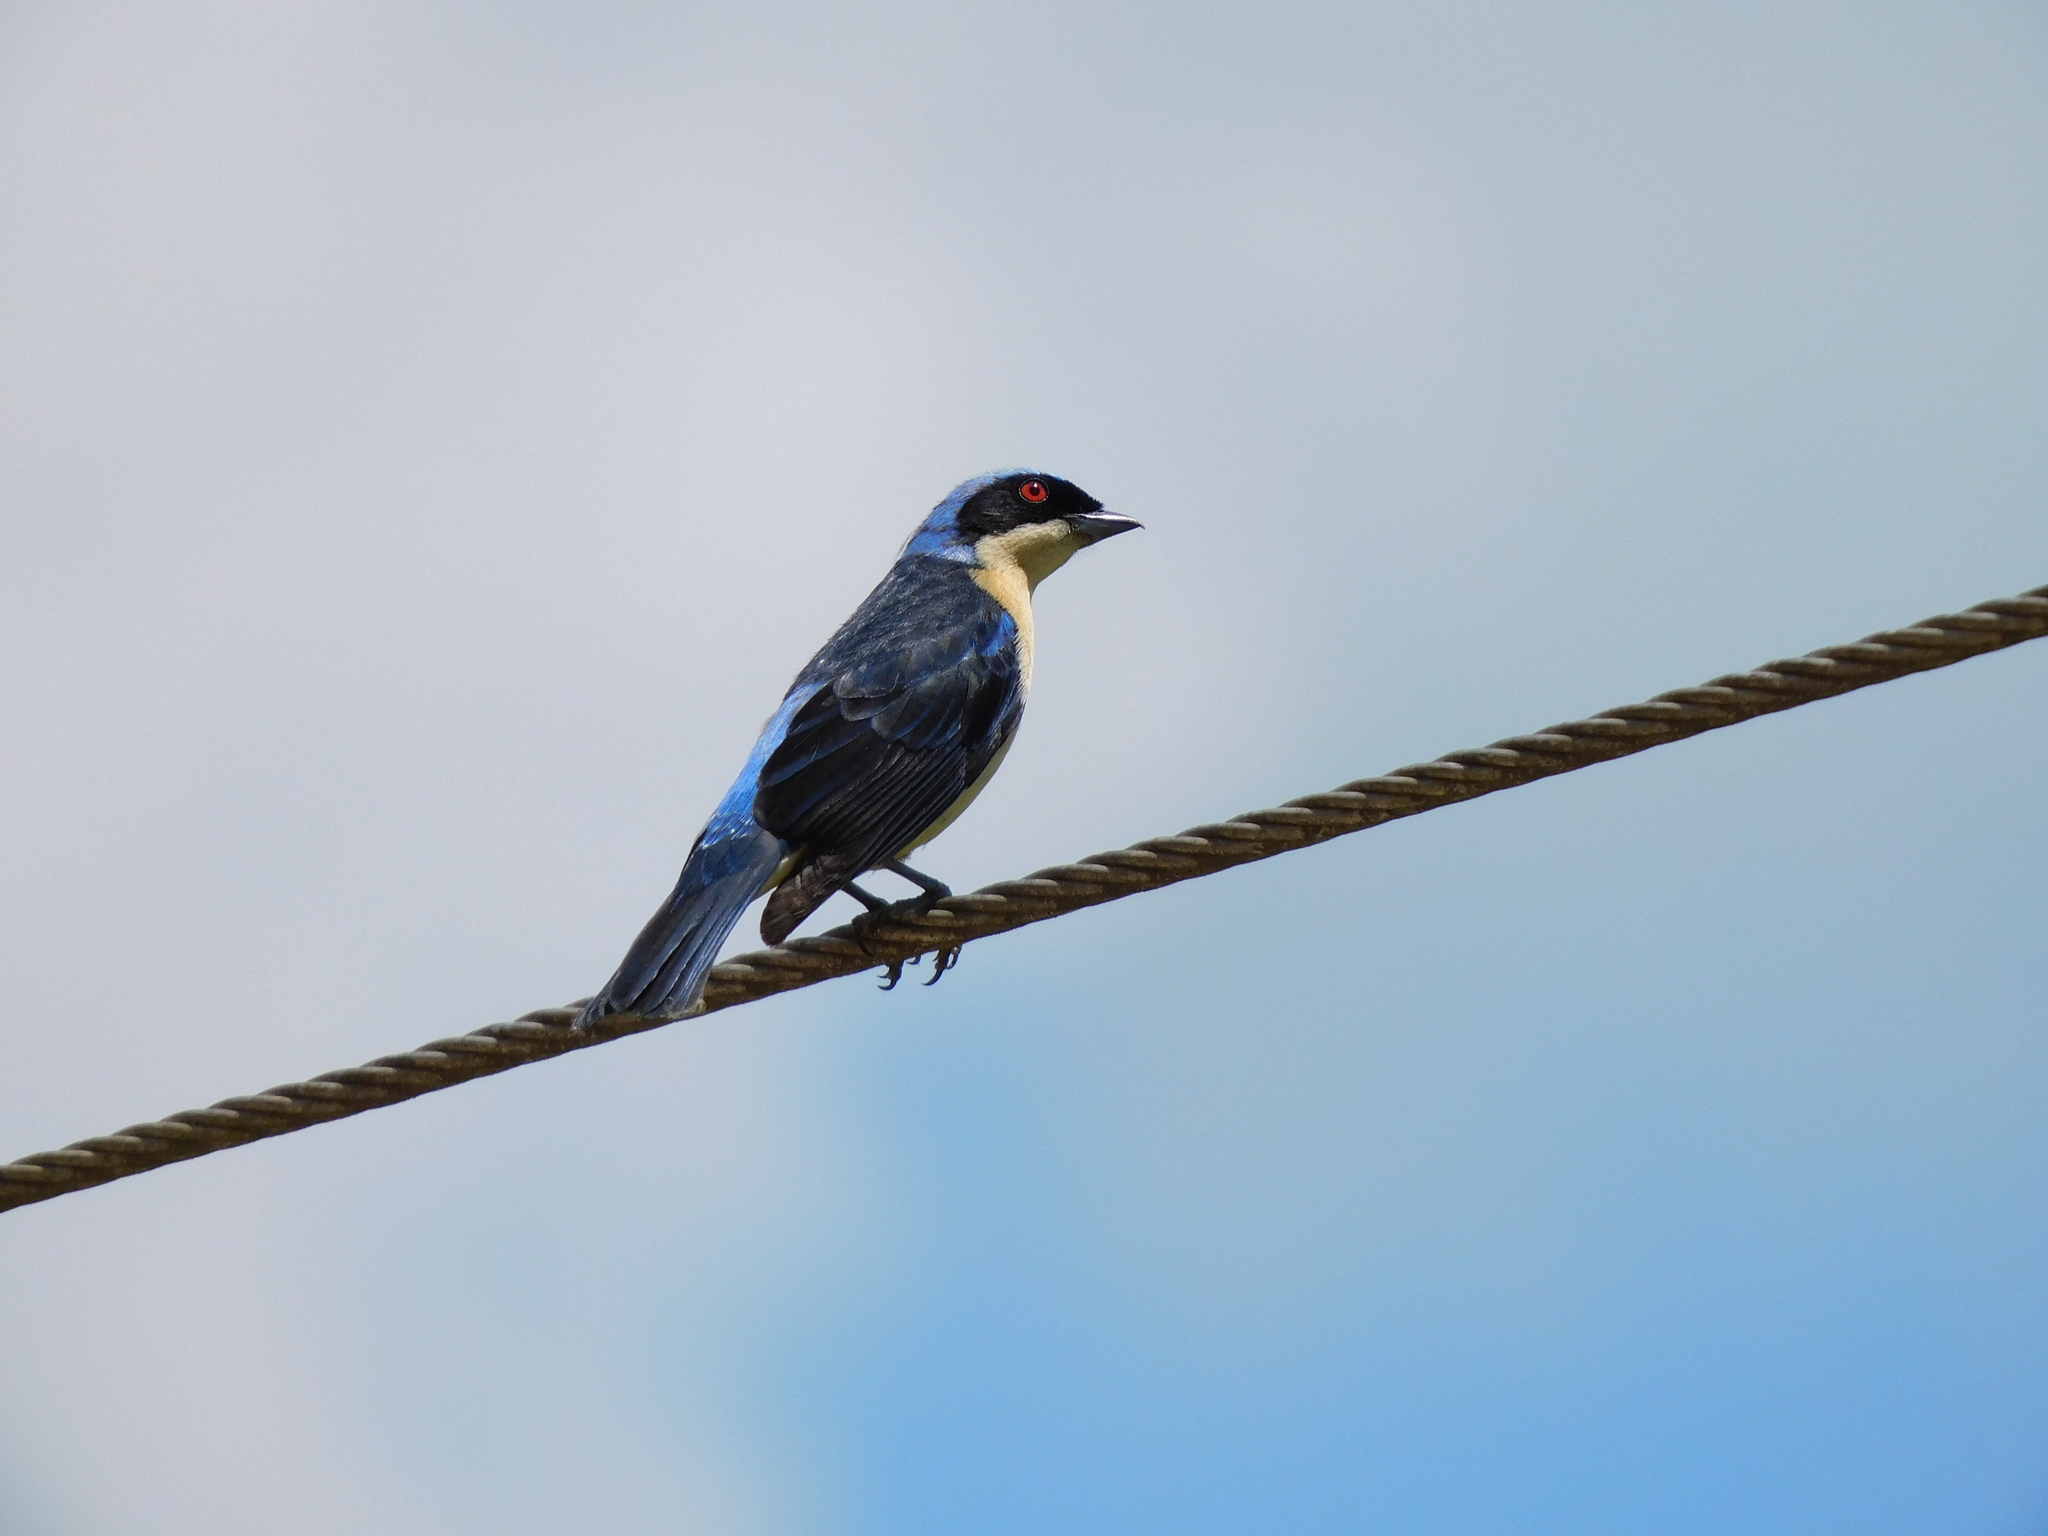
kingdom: Animalia
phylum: Chordata
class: Aves
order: Passeriformes
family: Thraupidae
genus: Pipraeidea
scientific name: Pipraeidea melanonota
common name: Fawn-breasted tanager
